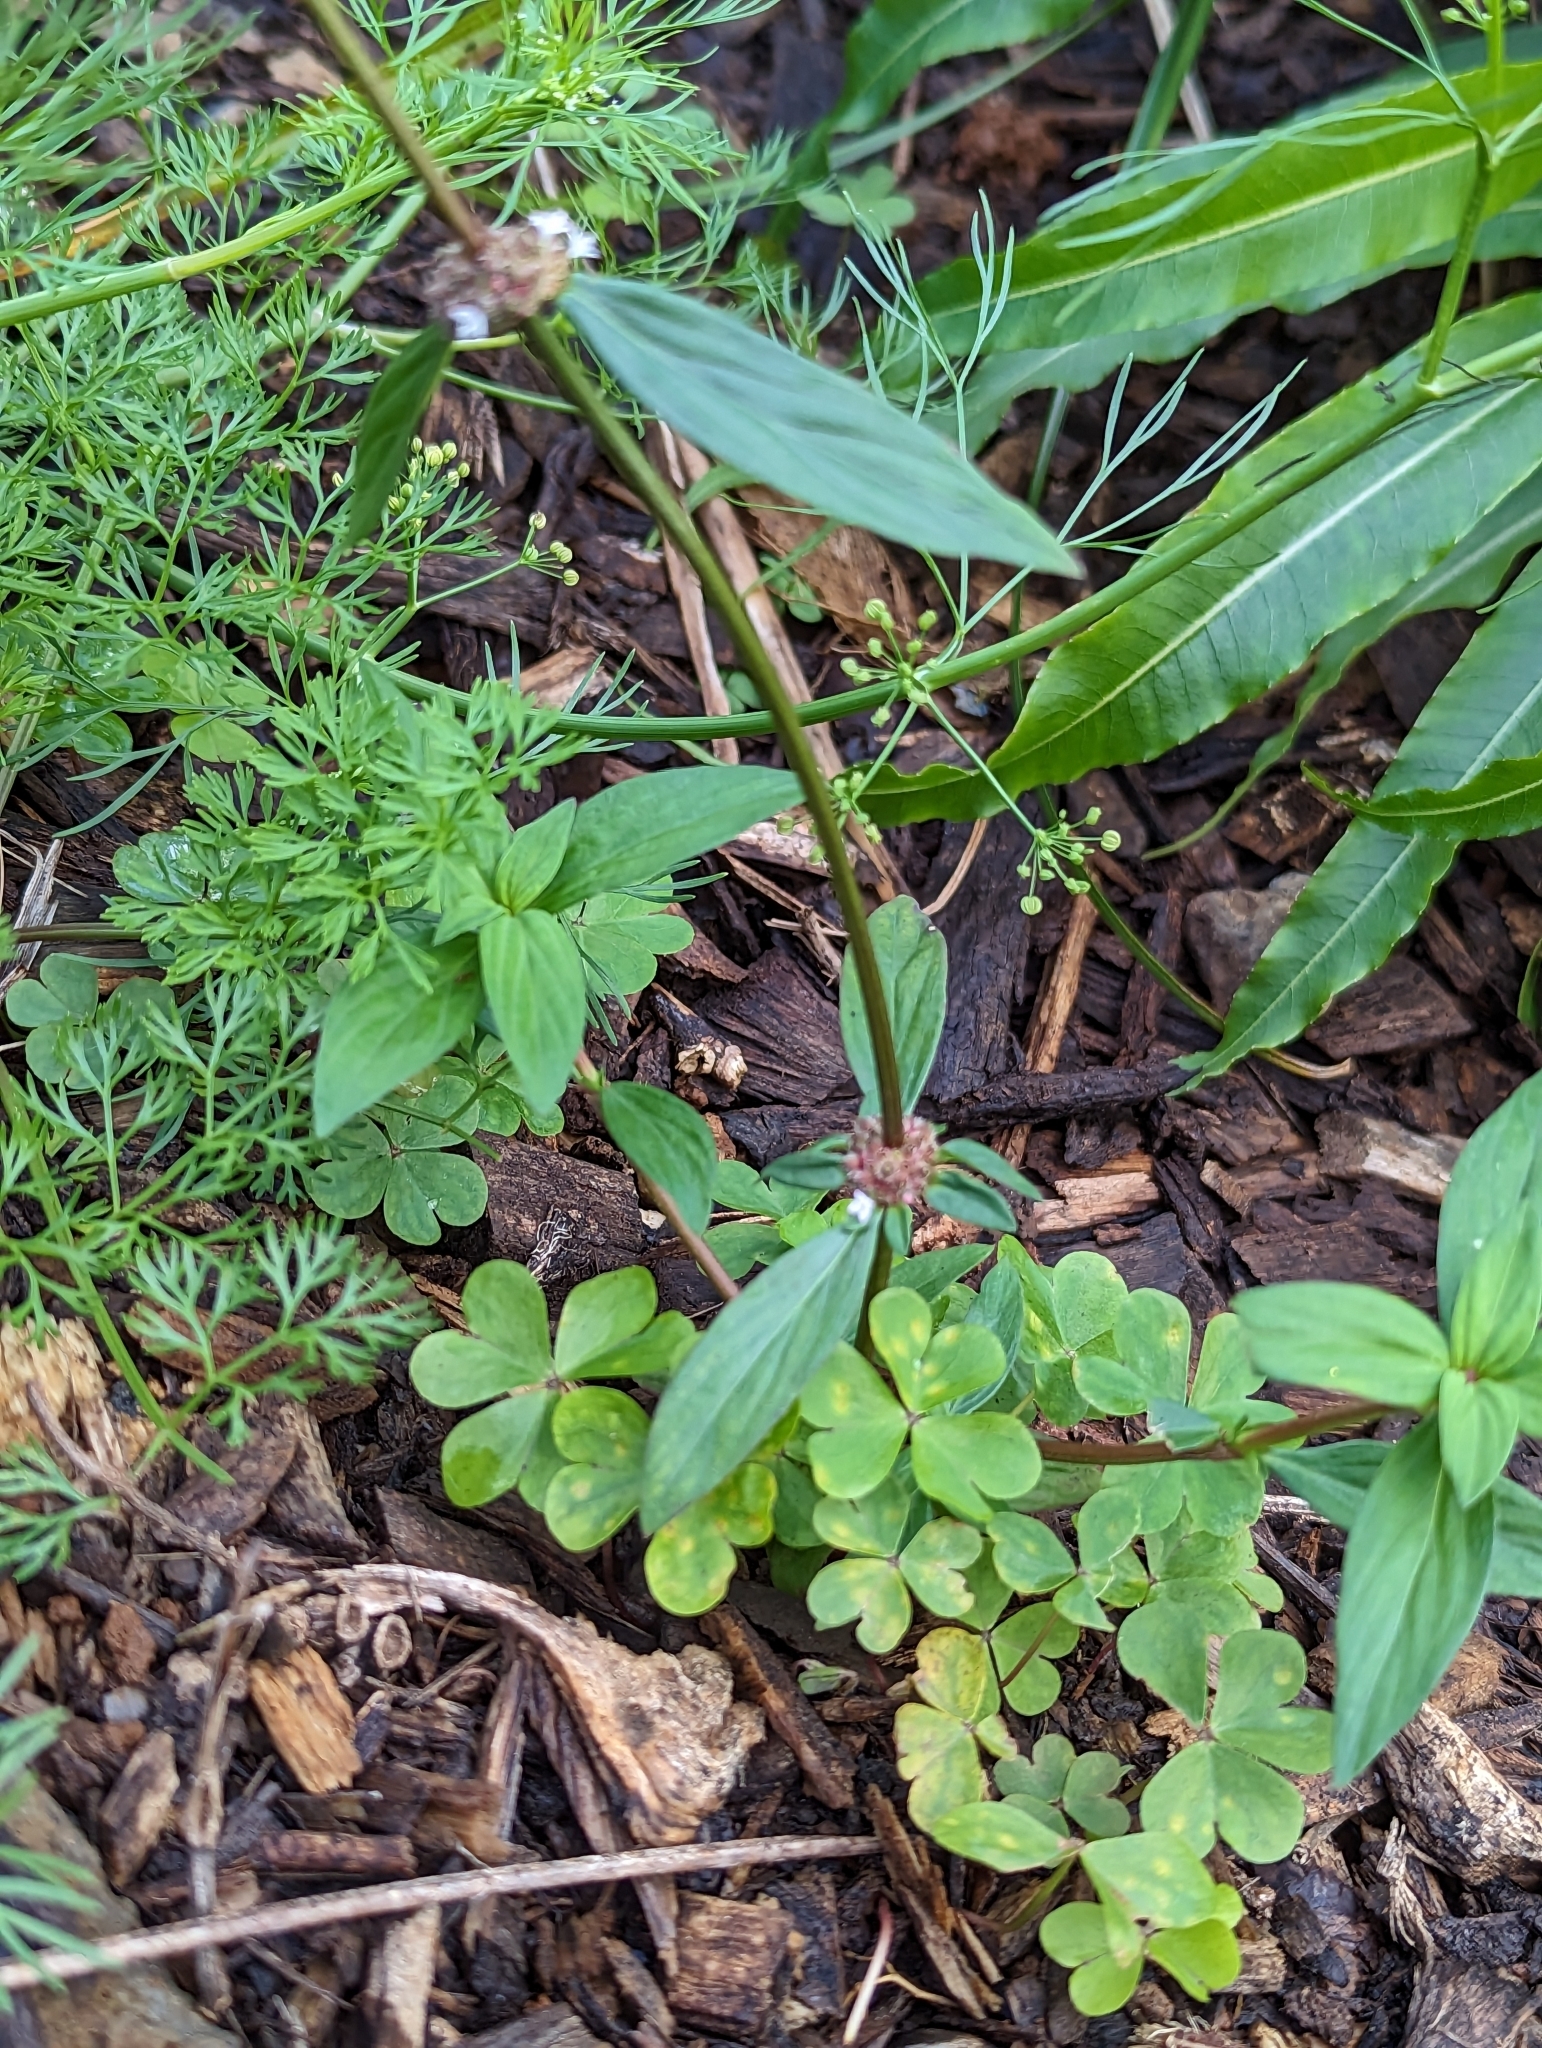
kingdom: Plantae
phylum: Tracheophyta
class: Magnoliopsida
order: Gentianales
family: Rubiaceae
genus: Spermacoce
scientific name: Spermacoce remota
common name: Woodland false buttonweed
